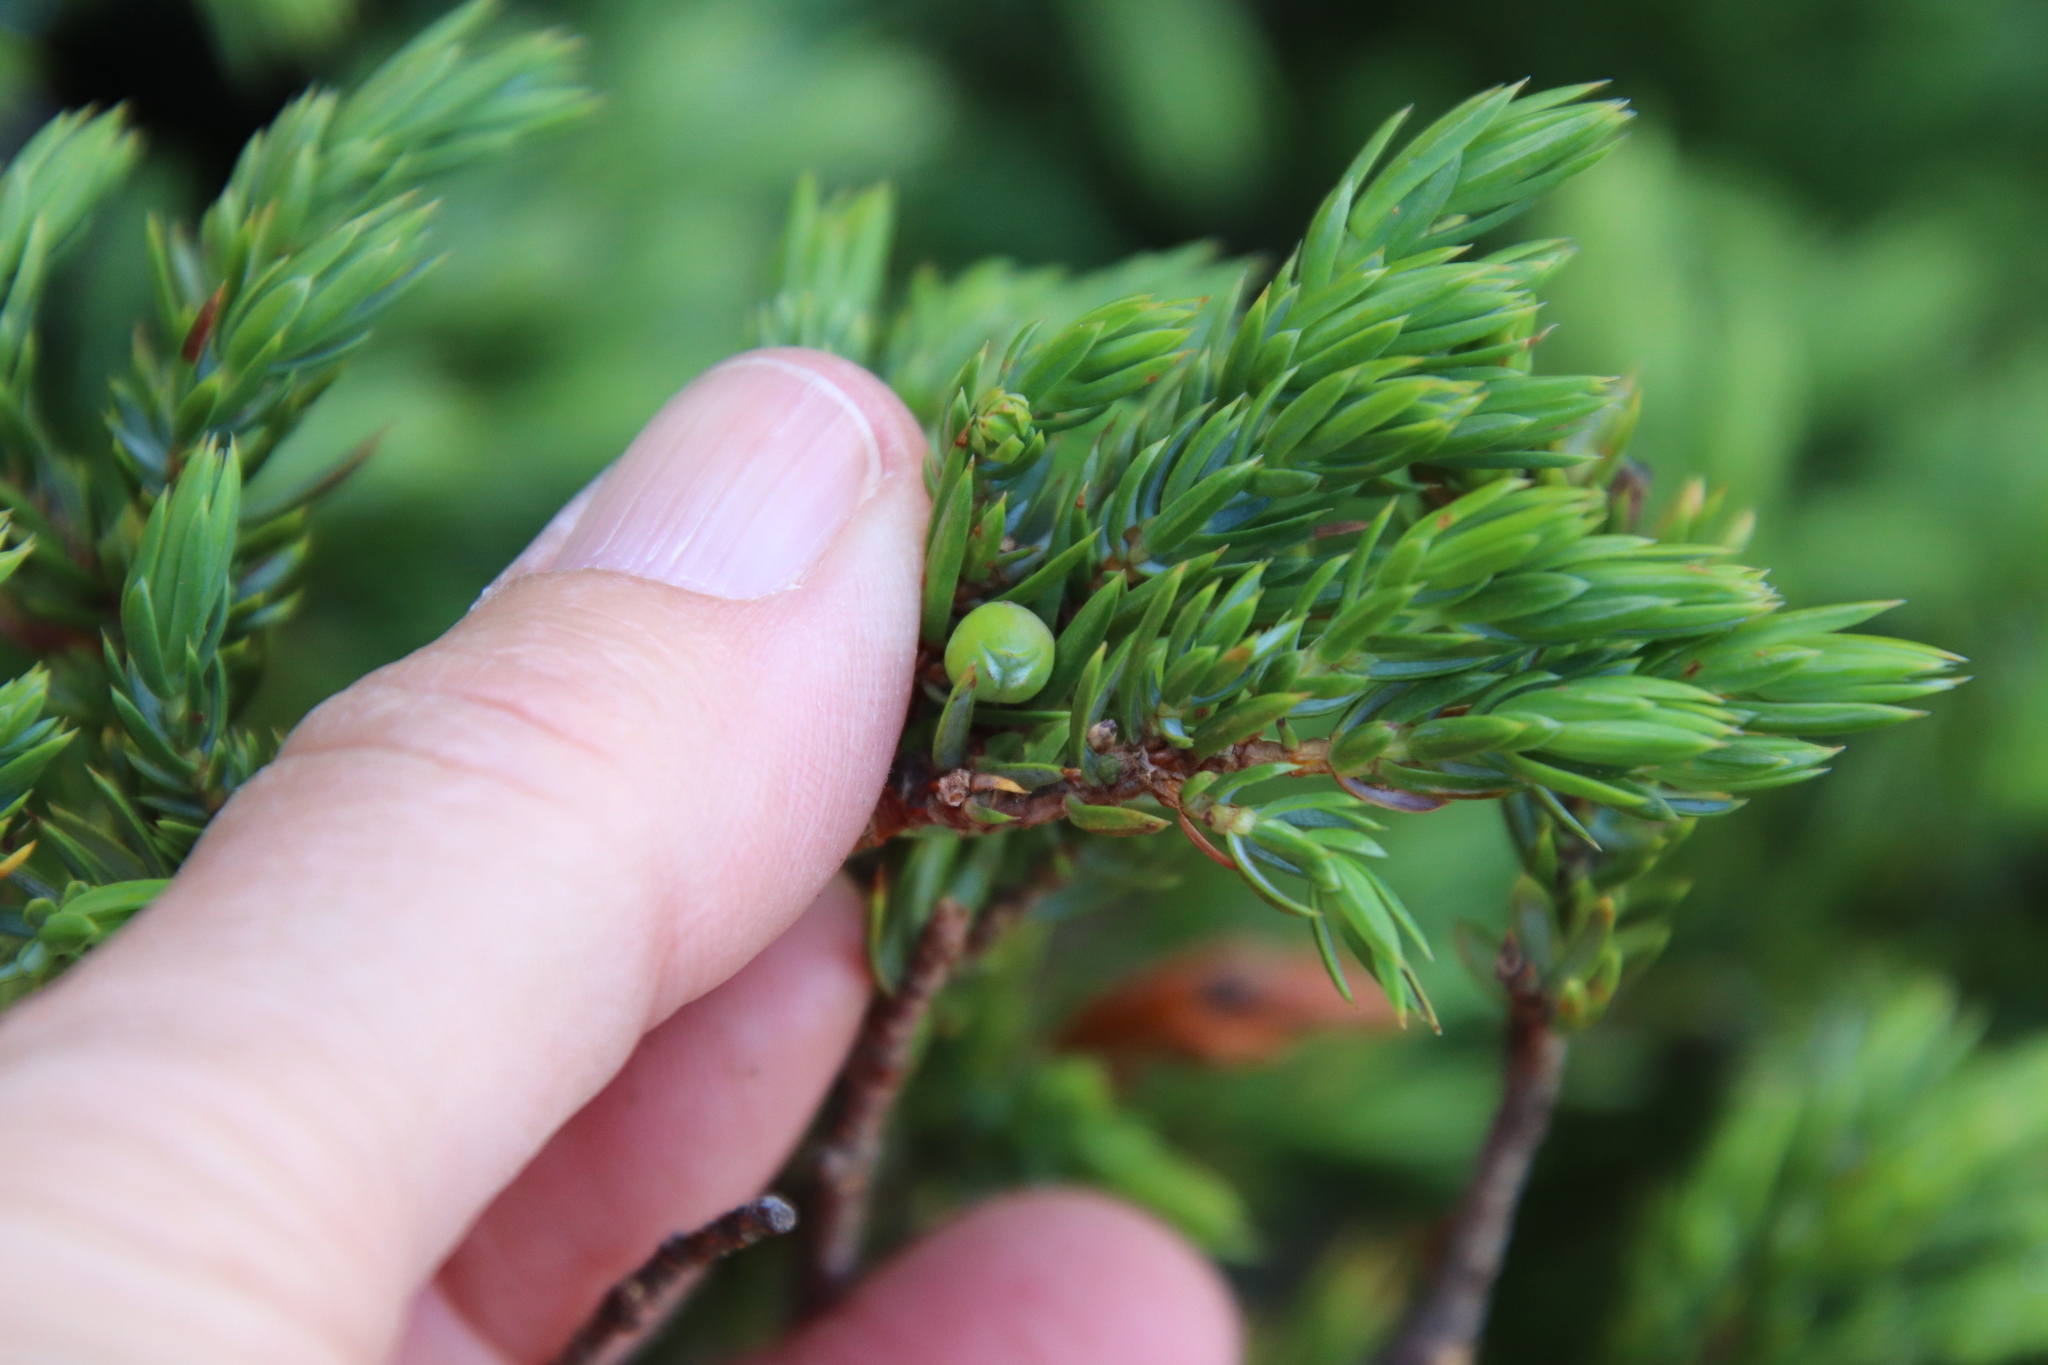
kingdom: Plantae
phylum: Tracheophyta
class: Pinopsida
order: Pinales
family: Cupressaceae
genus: Juniperus
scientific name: Juniperus communis
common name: Common juniper
